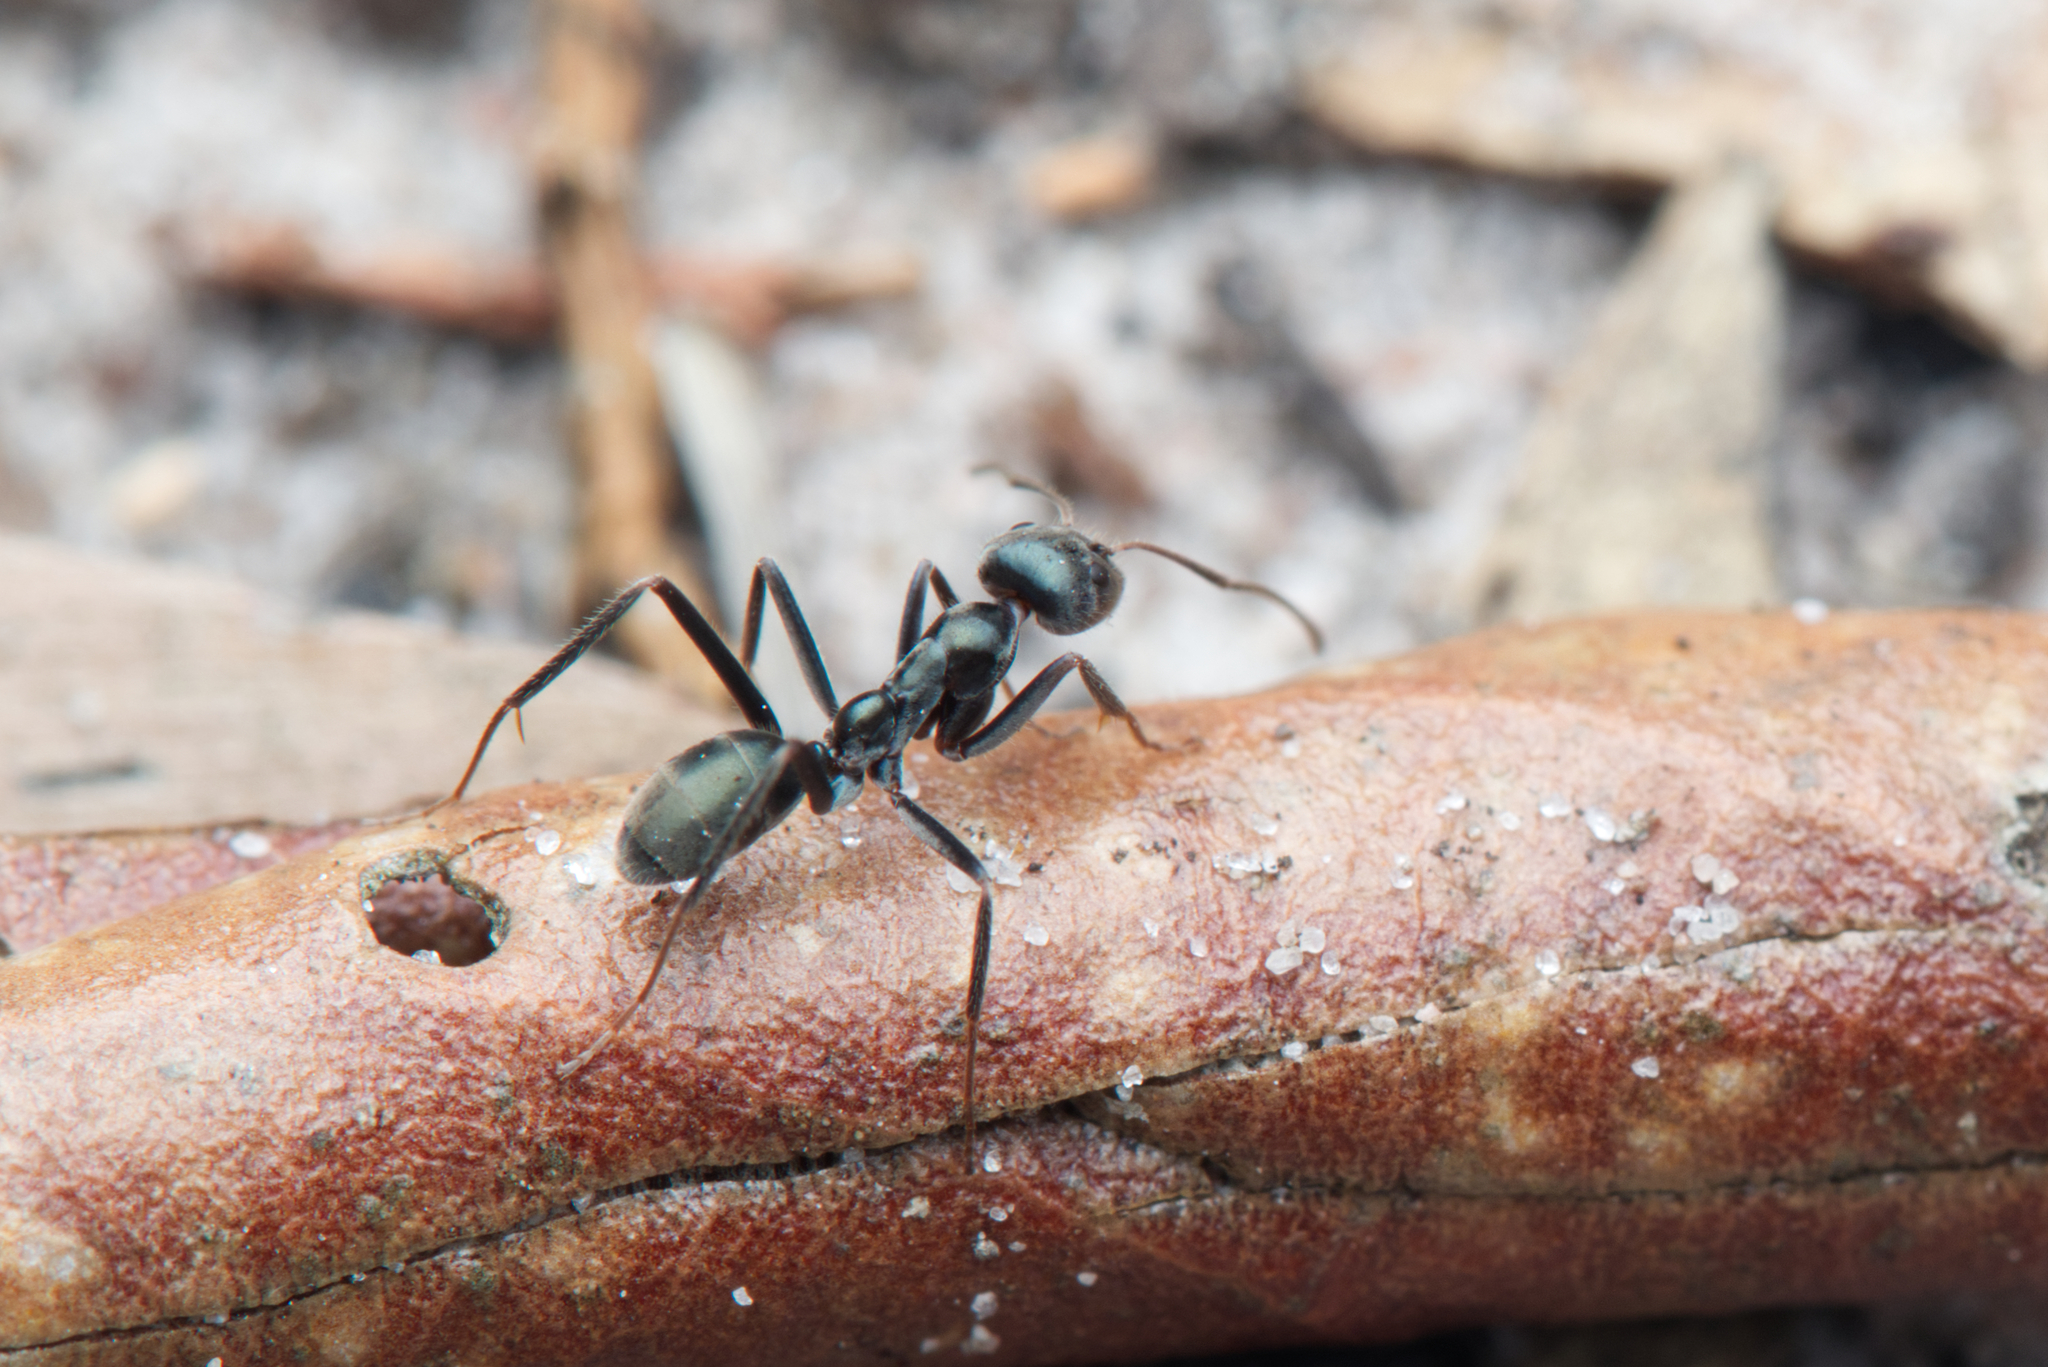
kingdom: Animalia
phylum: Arthropoda
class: Insecta
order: Hymenoptera
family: Formicidae
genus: Iridomyrmex
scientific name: Iridomyrmex
